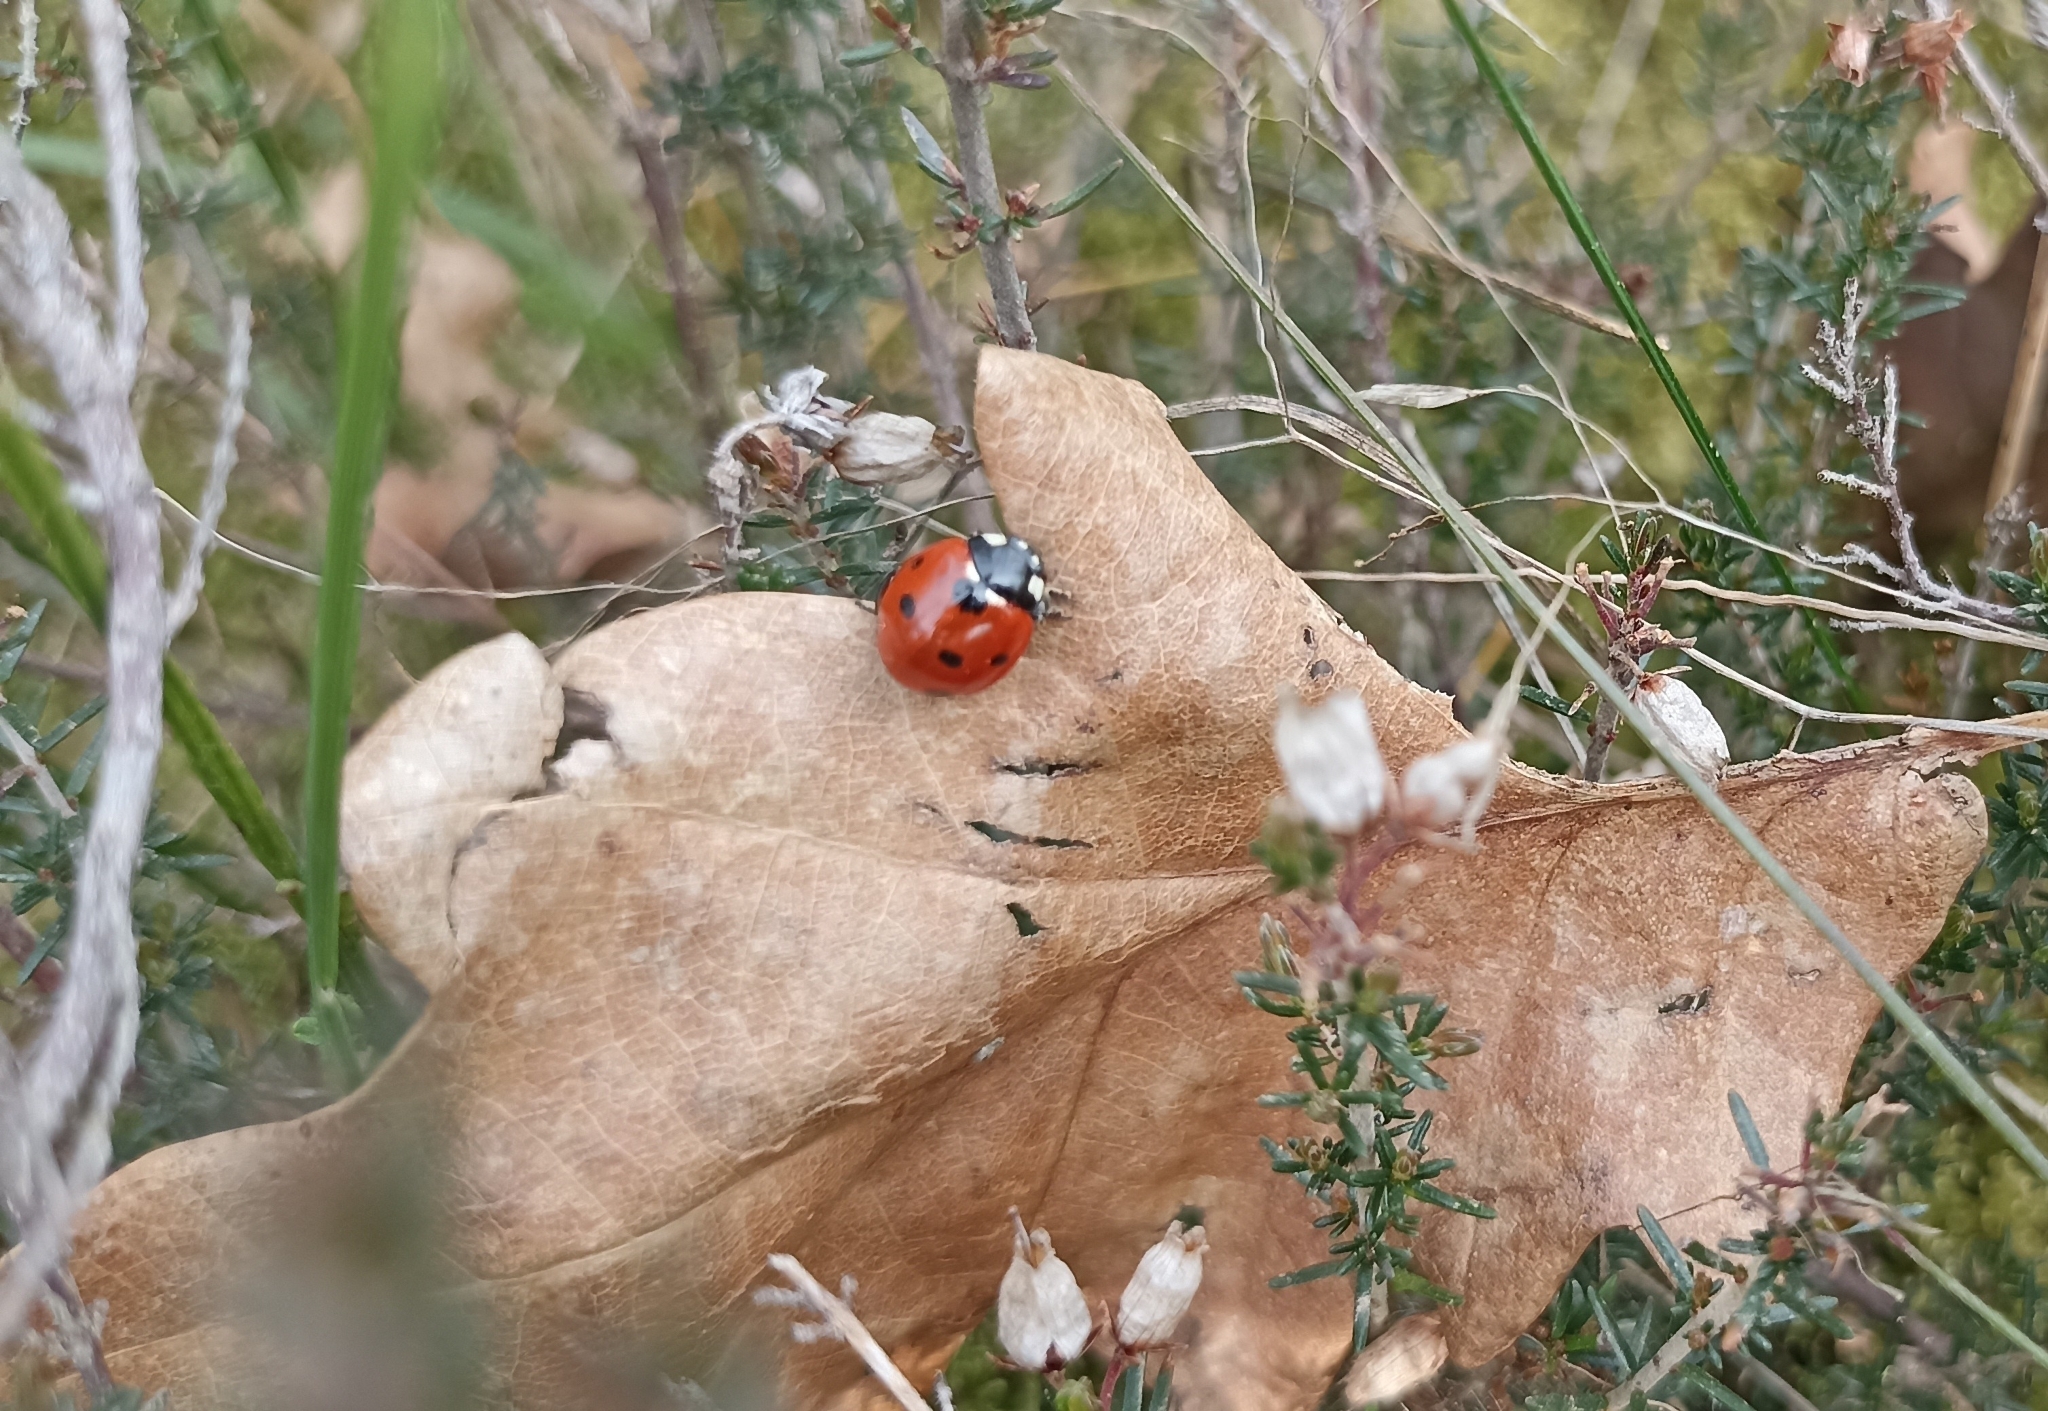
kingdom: Animalia
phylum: Arthropoda
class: Insecta
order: Coleoptera
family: Coccinellidae
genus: Coccinella
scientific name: Coccinella septempunctata
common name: Sevenspotted lady beetle
